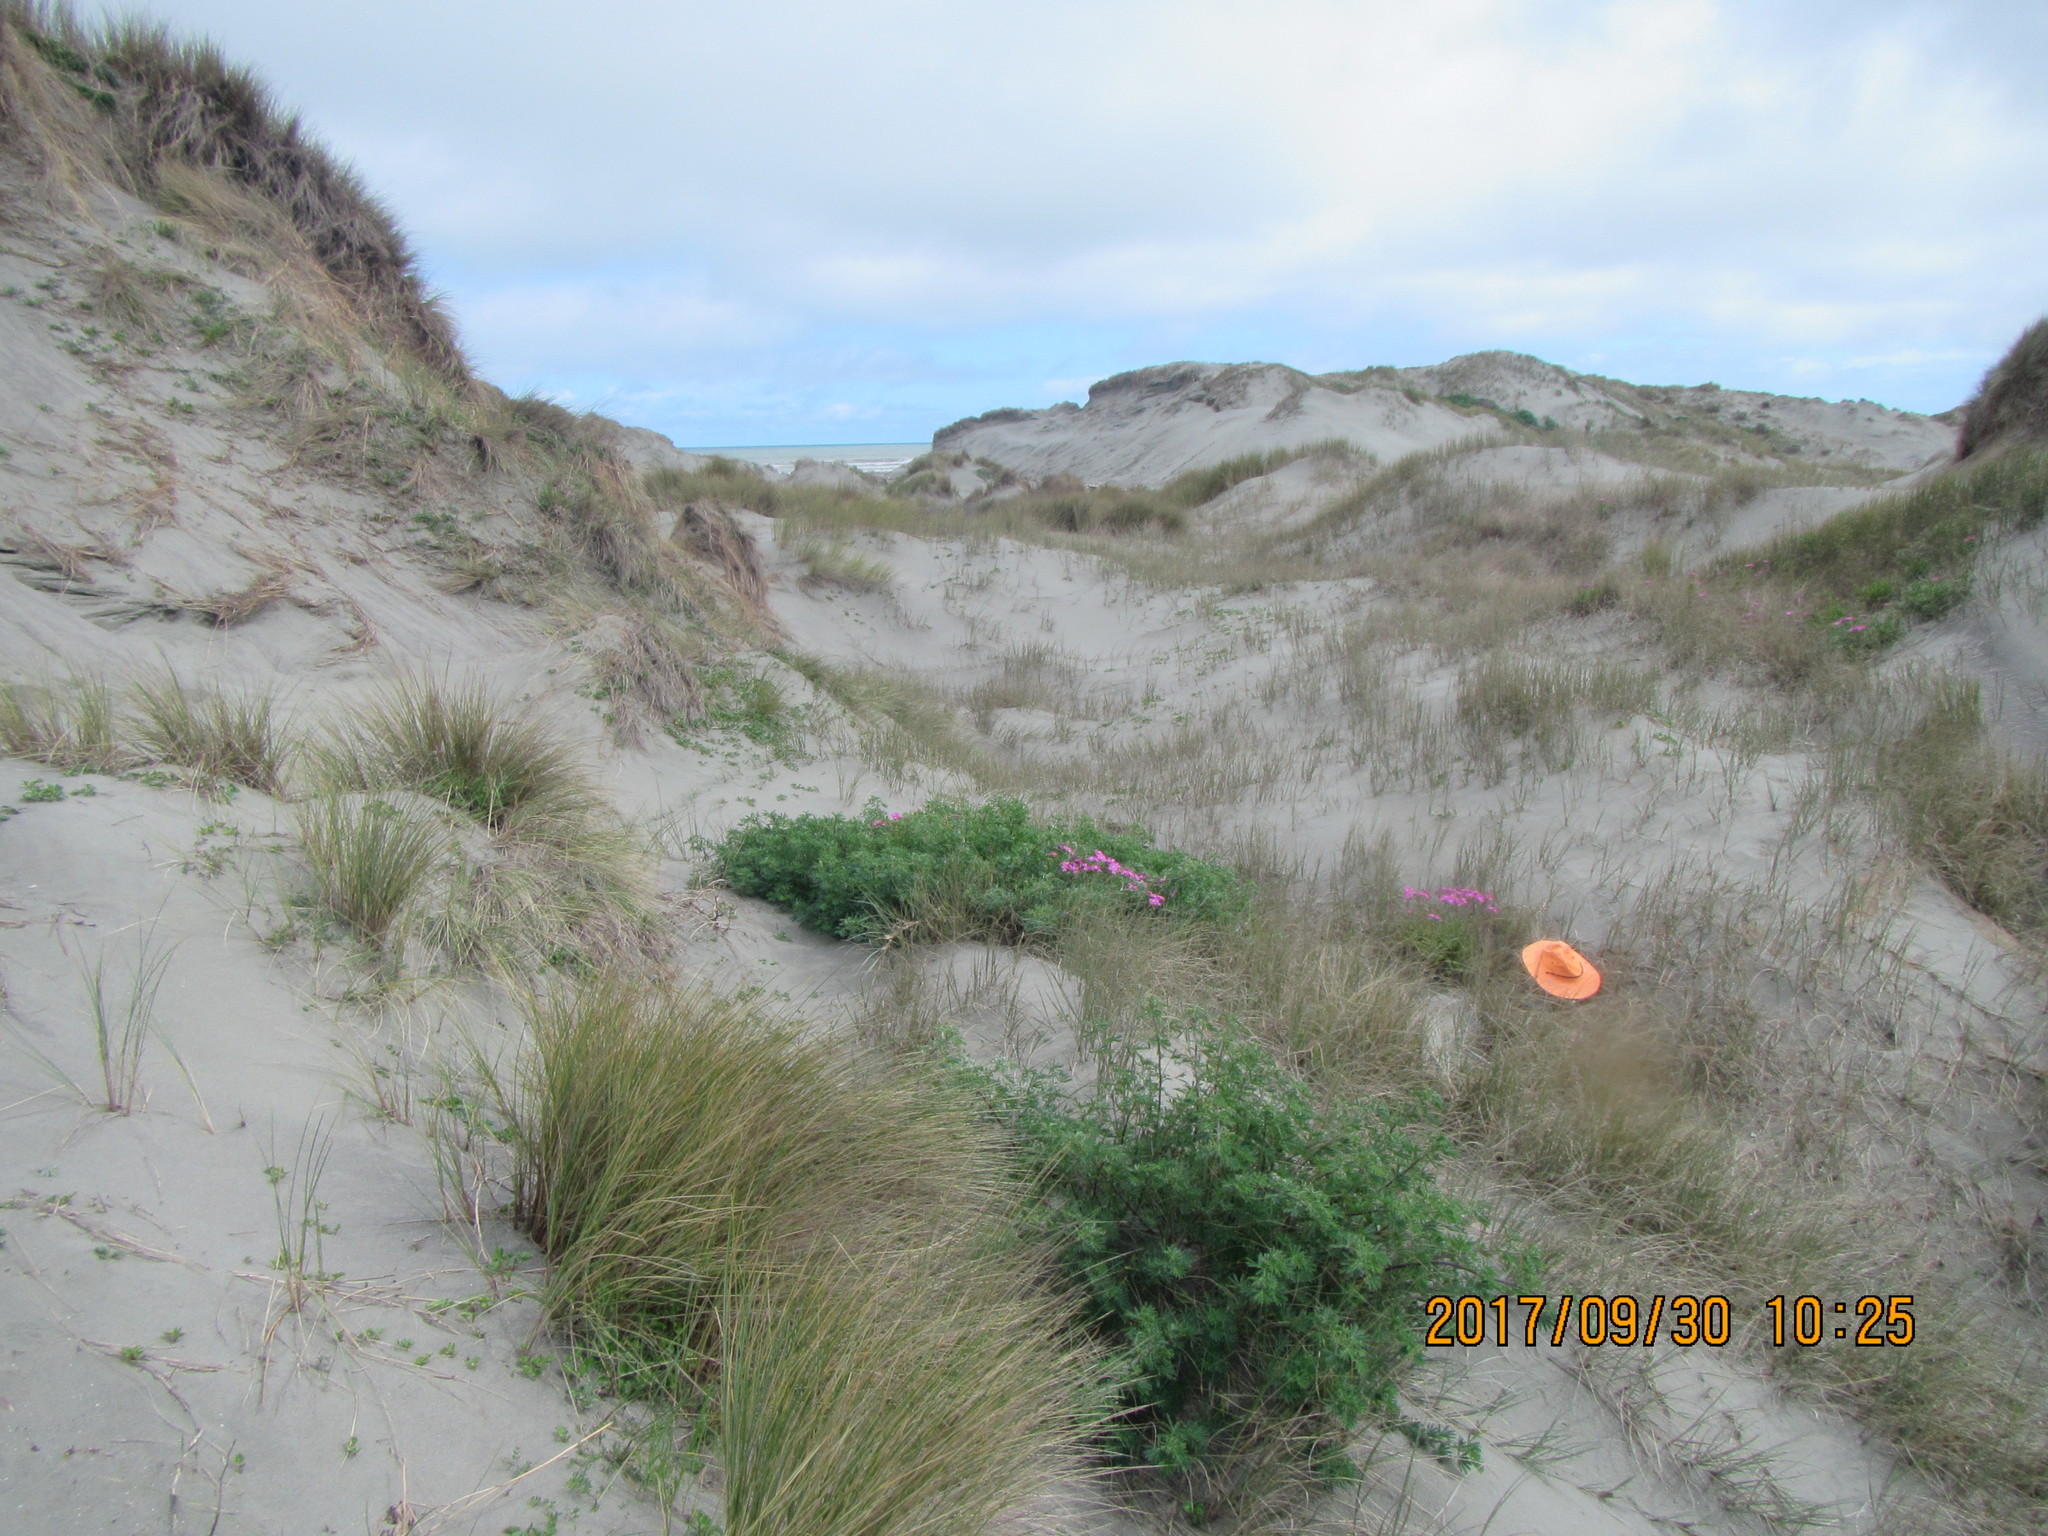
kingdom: Animalia
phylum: Arthropoda
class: Arachnida
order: Araneae
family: Theridiidae
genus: Steatoda
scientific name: Steatoda capensis
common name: Cobweb weaver
